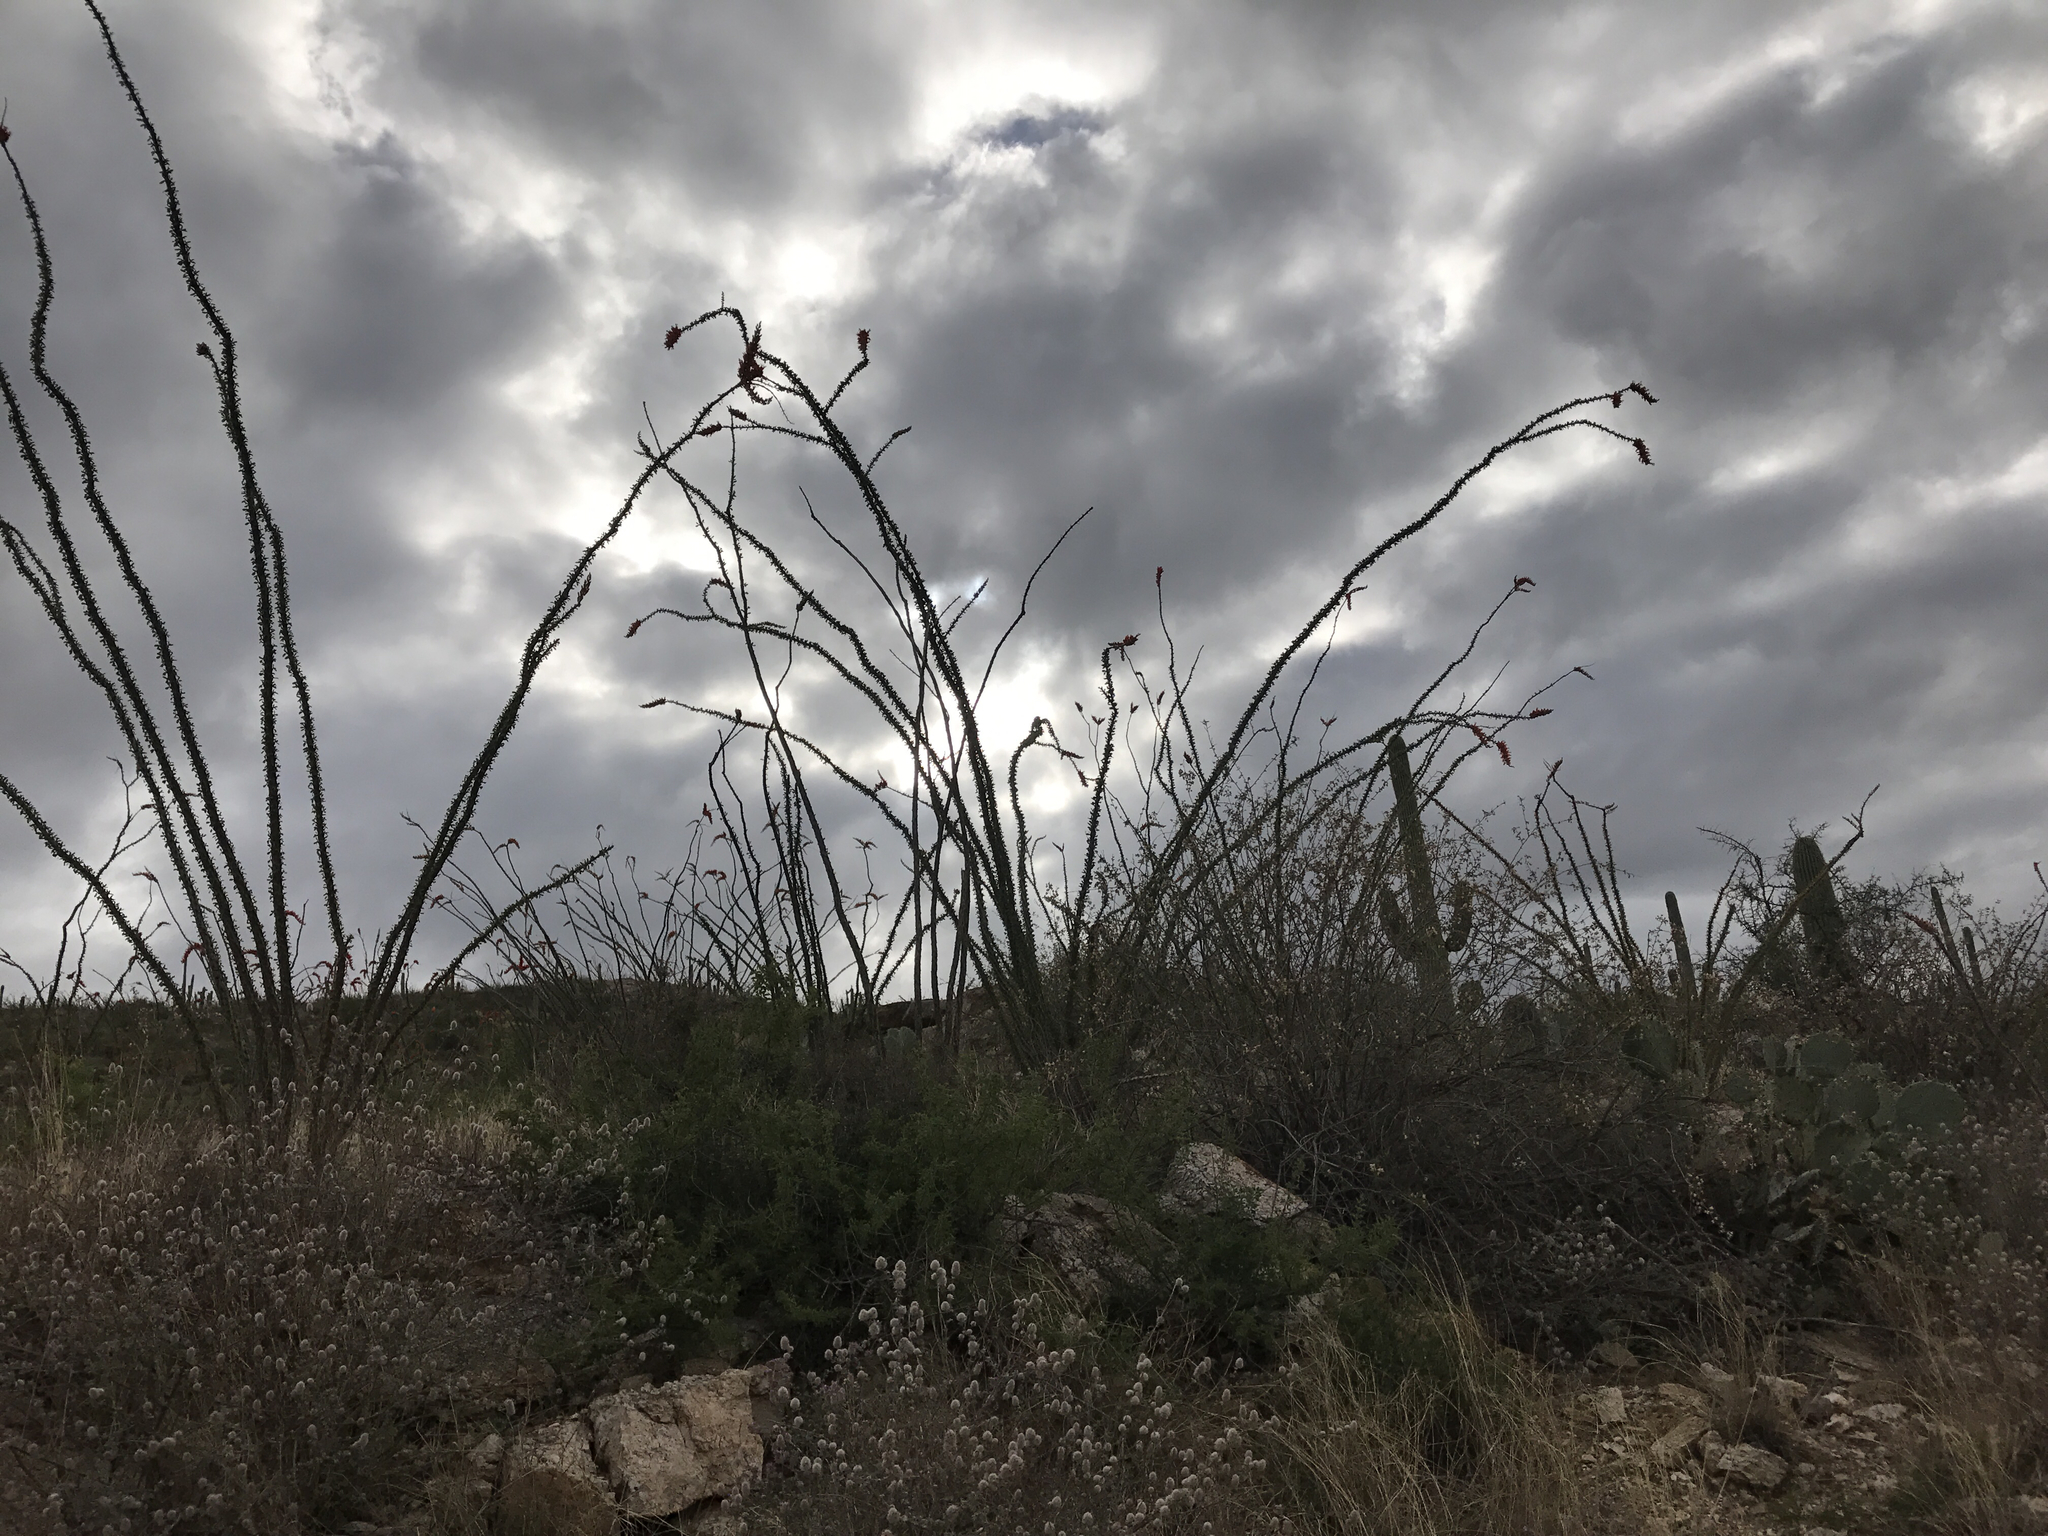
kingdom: Plantae
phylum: Tracheophyta
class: Magnoliopsida
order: Ericales
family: Fouquieriaceae
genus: Fouquieria
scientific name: Fouquieria splendens
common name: Vine-cactus
